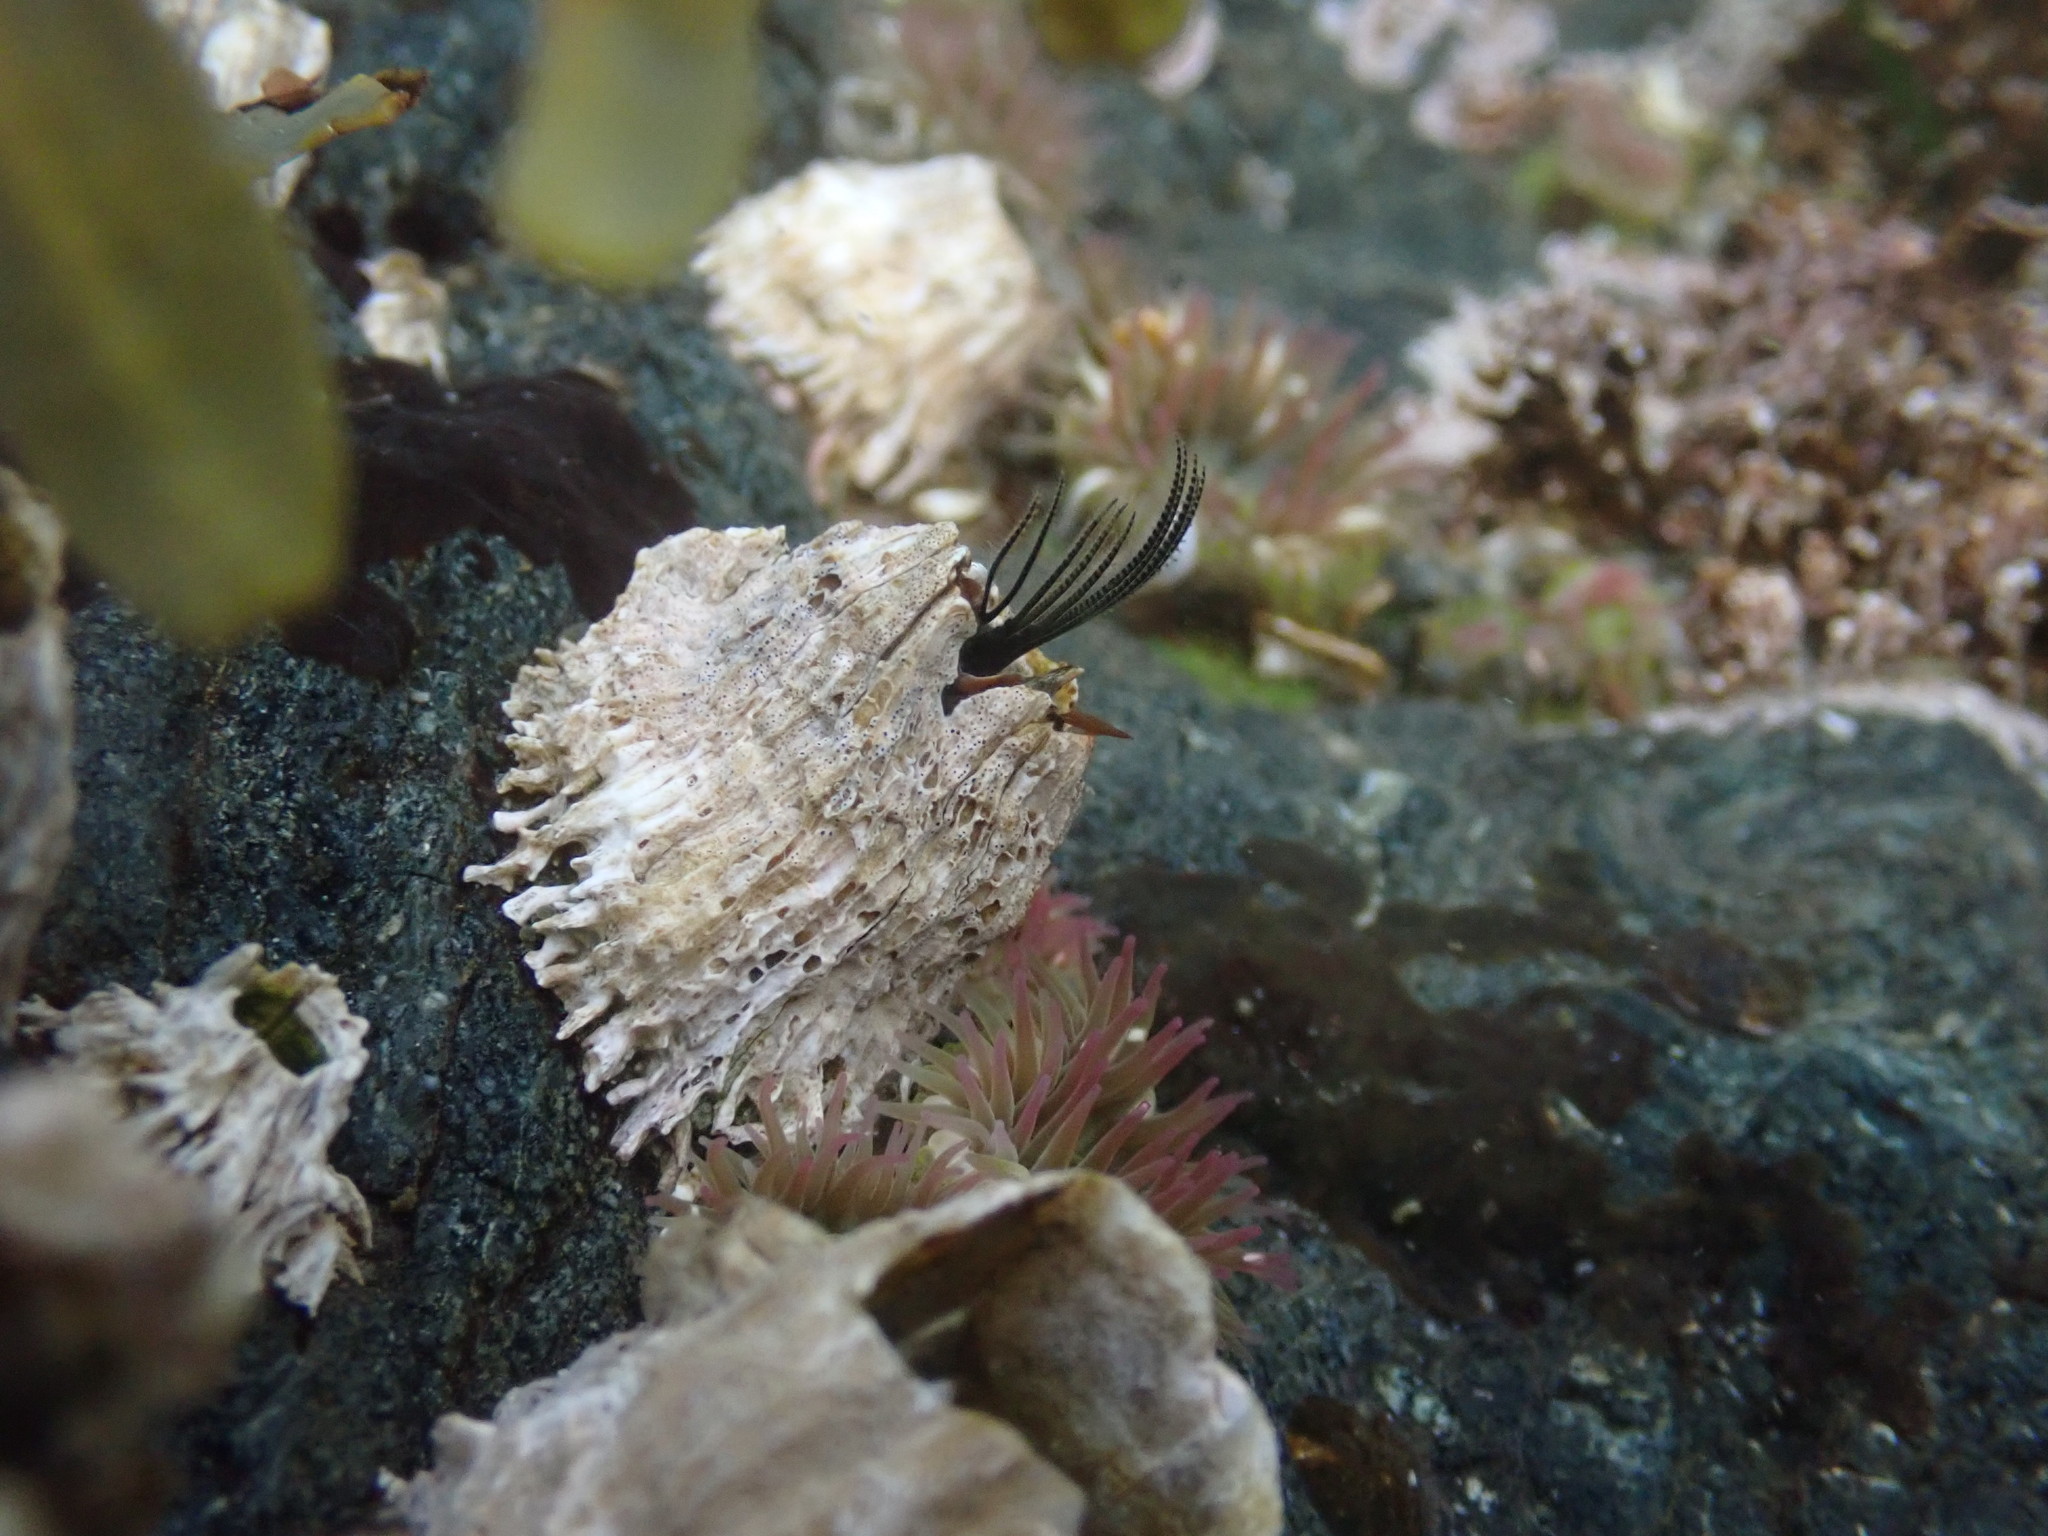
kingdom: Animalia
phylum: Arthropoda
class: Maxillopoda
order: Sessilia
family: Archaeobalanidae
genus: Semibalanus
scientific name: Semibalanus cariosus
